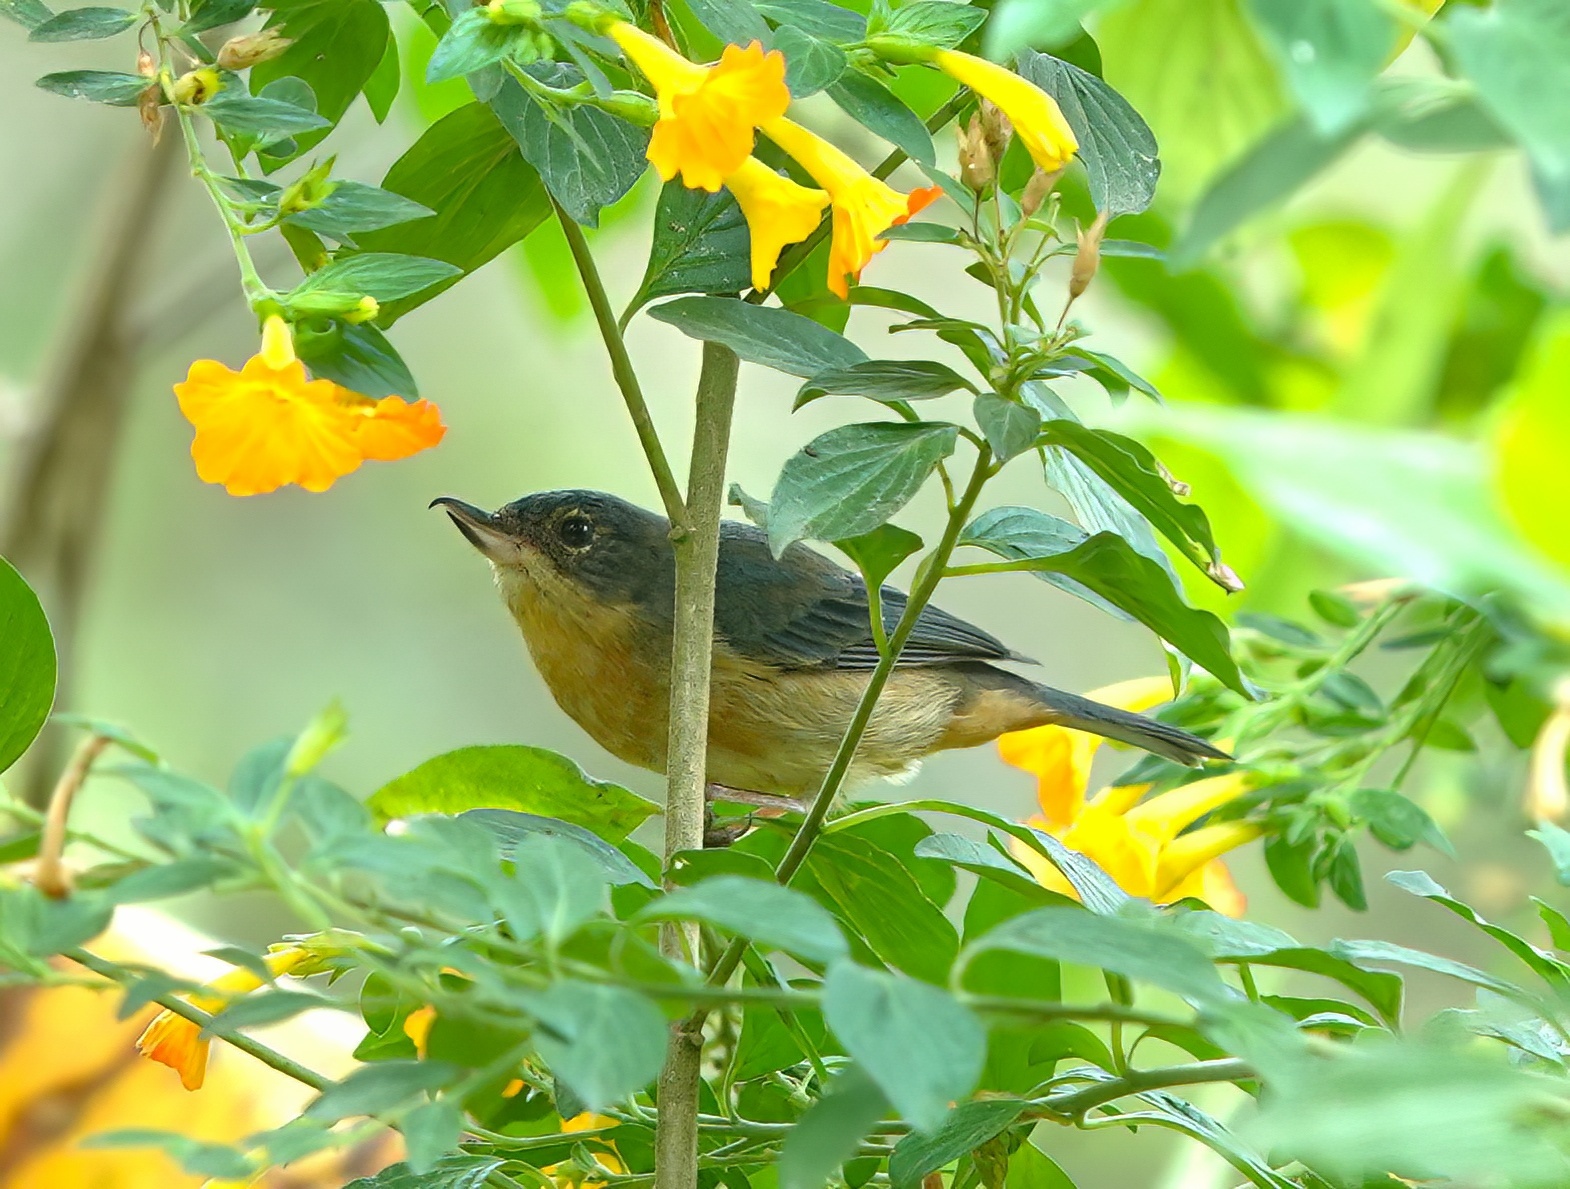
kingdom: Animalia
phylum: Chordata
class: Aves
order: Passeriformes
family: Thraupidae
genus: Diglossa
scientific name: Diglossa sittoides
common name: Rusty flowerpiercer
